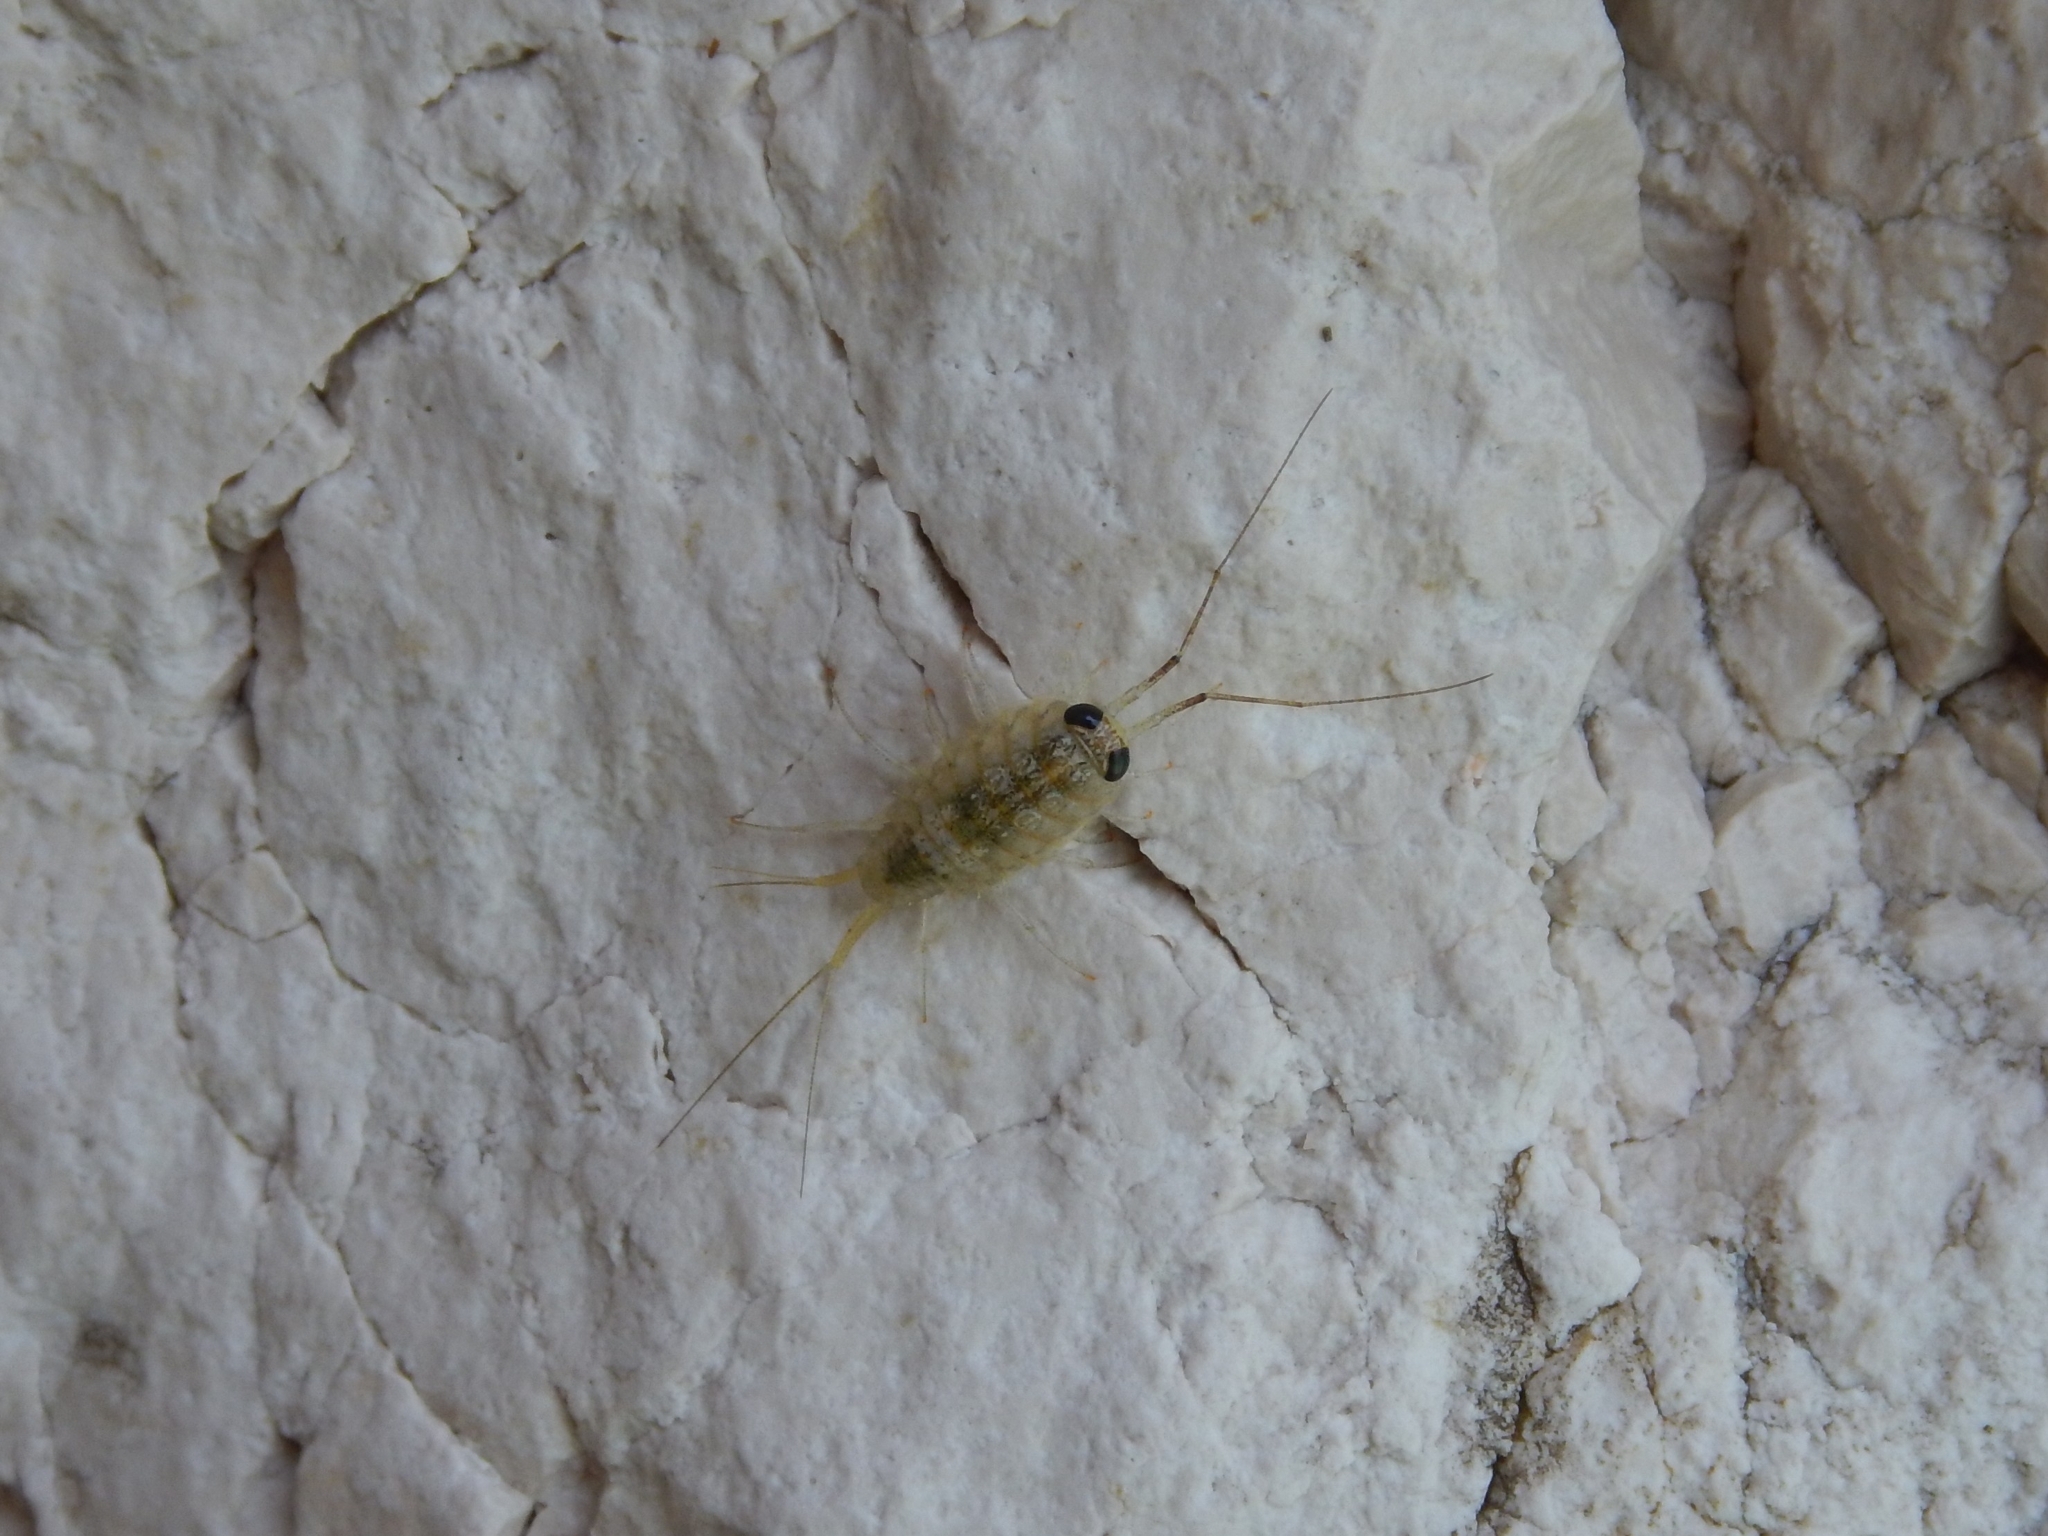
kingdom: Animalia
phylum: Arthropoda
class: Malacostraca
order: Isopoda
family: Ligiidae
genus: Ligia
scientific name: Ligia italica
